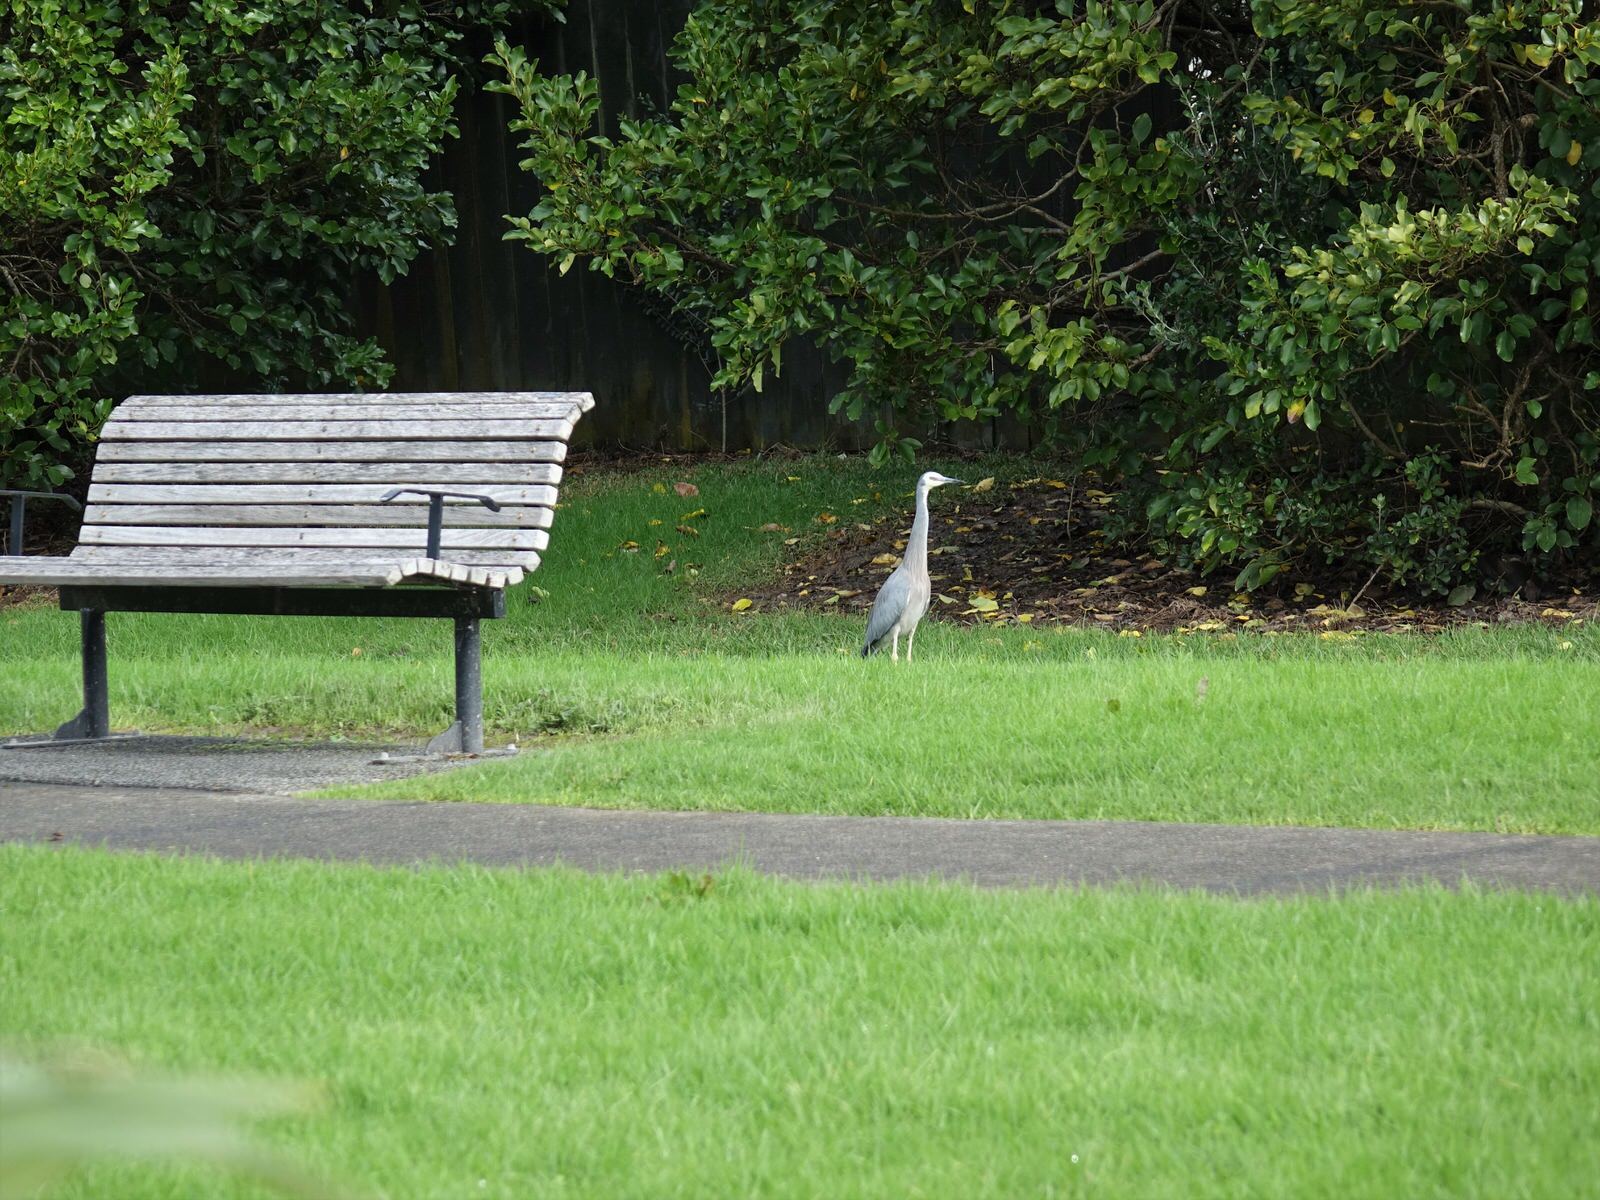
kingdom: Animalia
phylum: Chordata
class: Aves
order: Pelecaniformes
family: Ardeidae
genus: Egretta
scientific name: Egretta novaehollandiae
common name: White-faced heron
